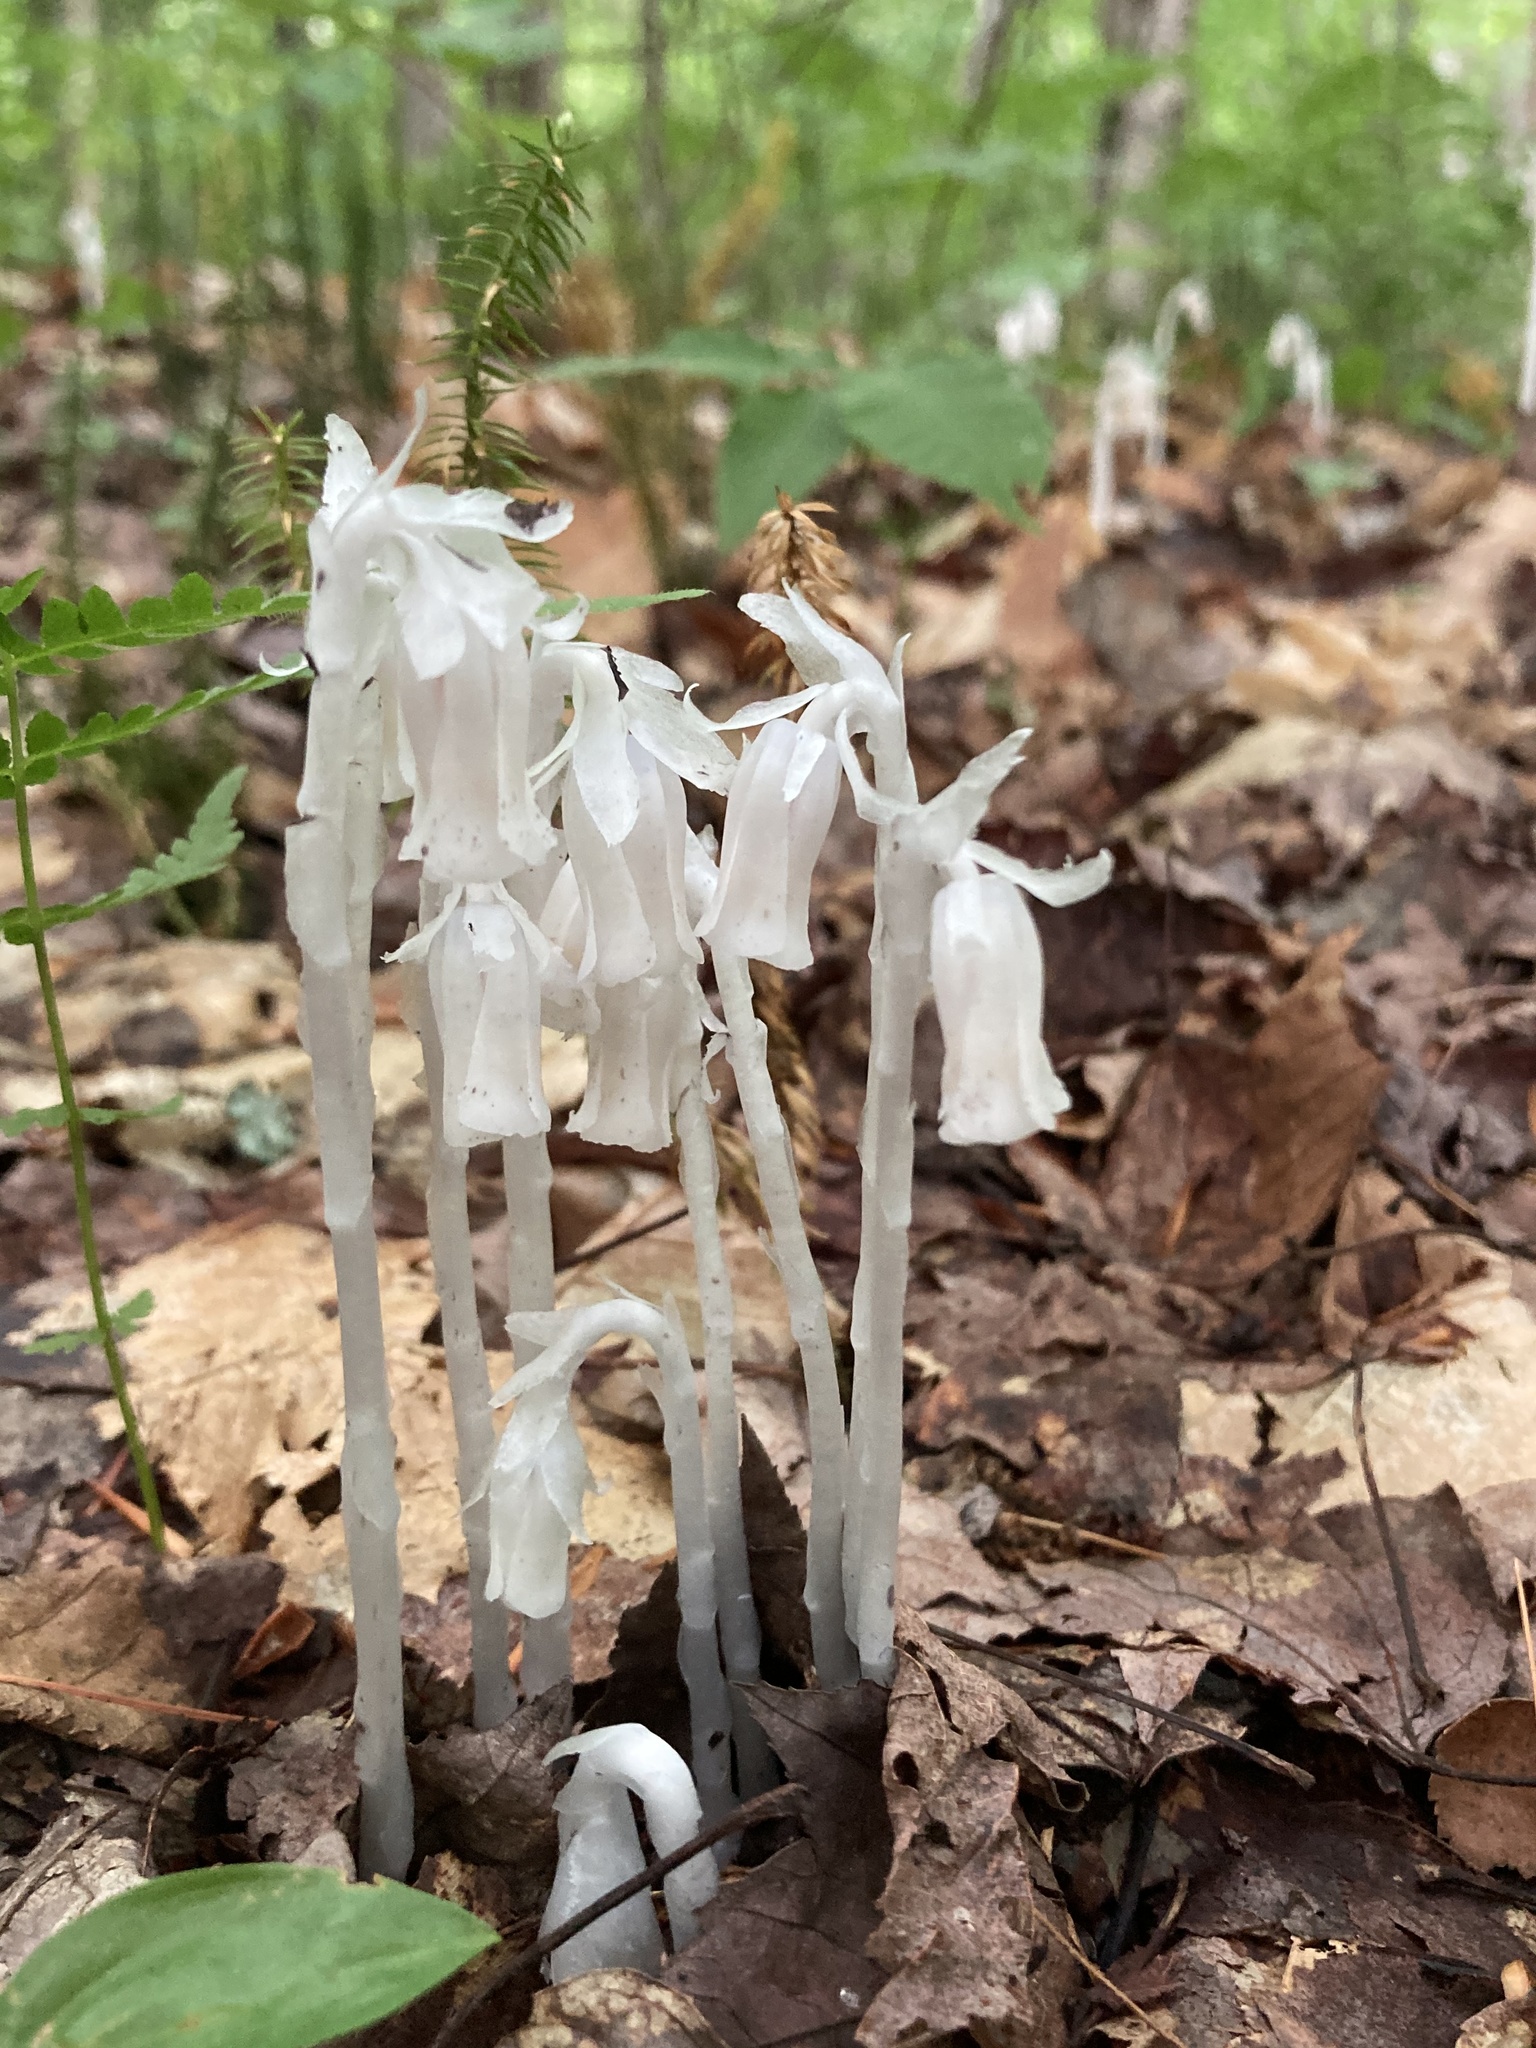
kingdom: Plantae
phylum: Tracheophyta
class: Magnoliopsida
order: Ericales
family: Ericaceae
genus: Monotropa
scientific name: Monotropa uniflora
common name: Convulsion root
